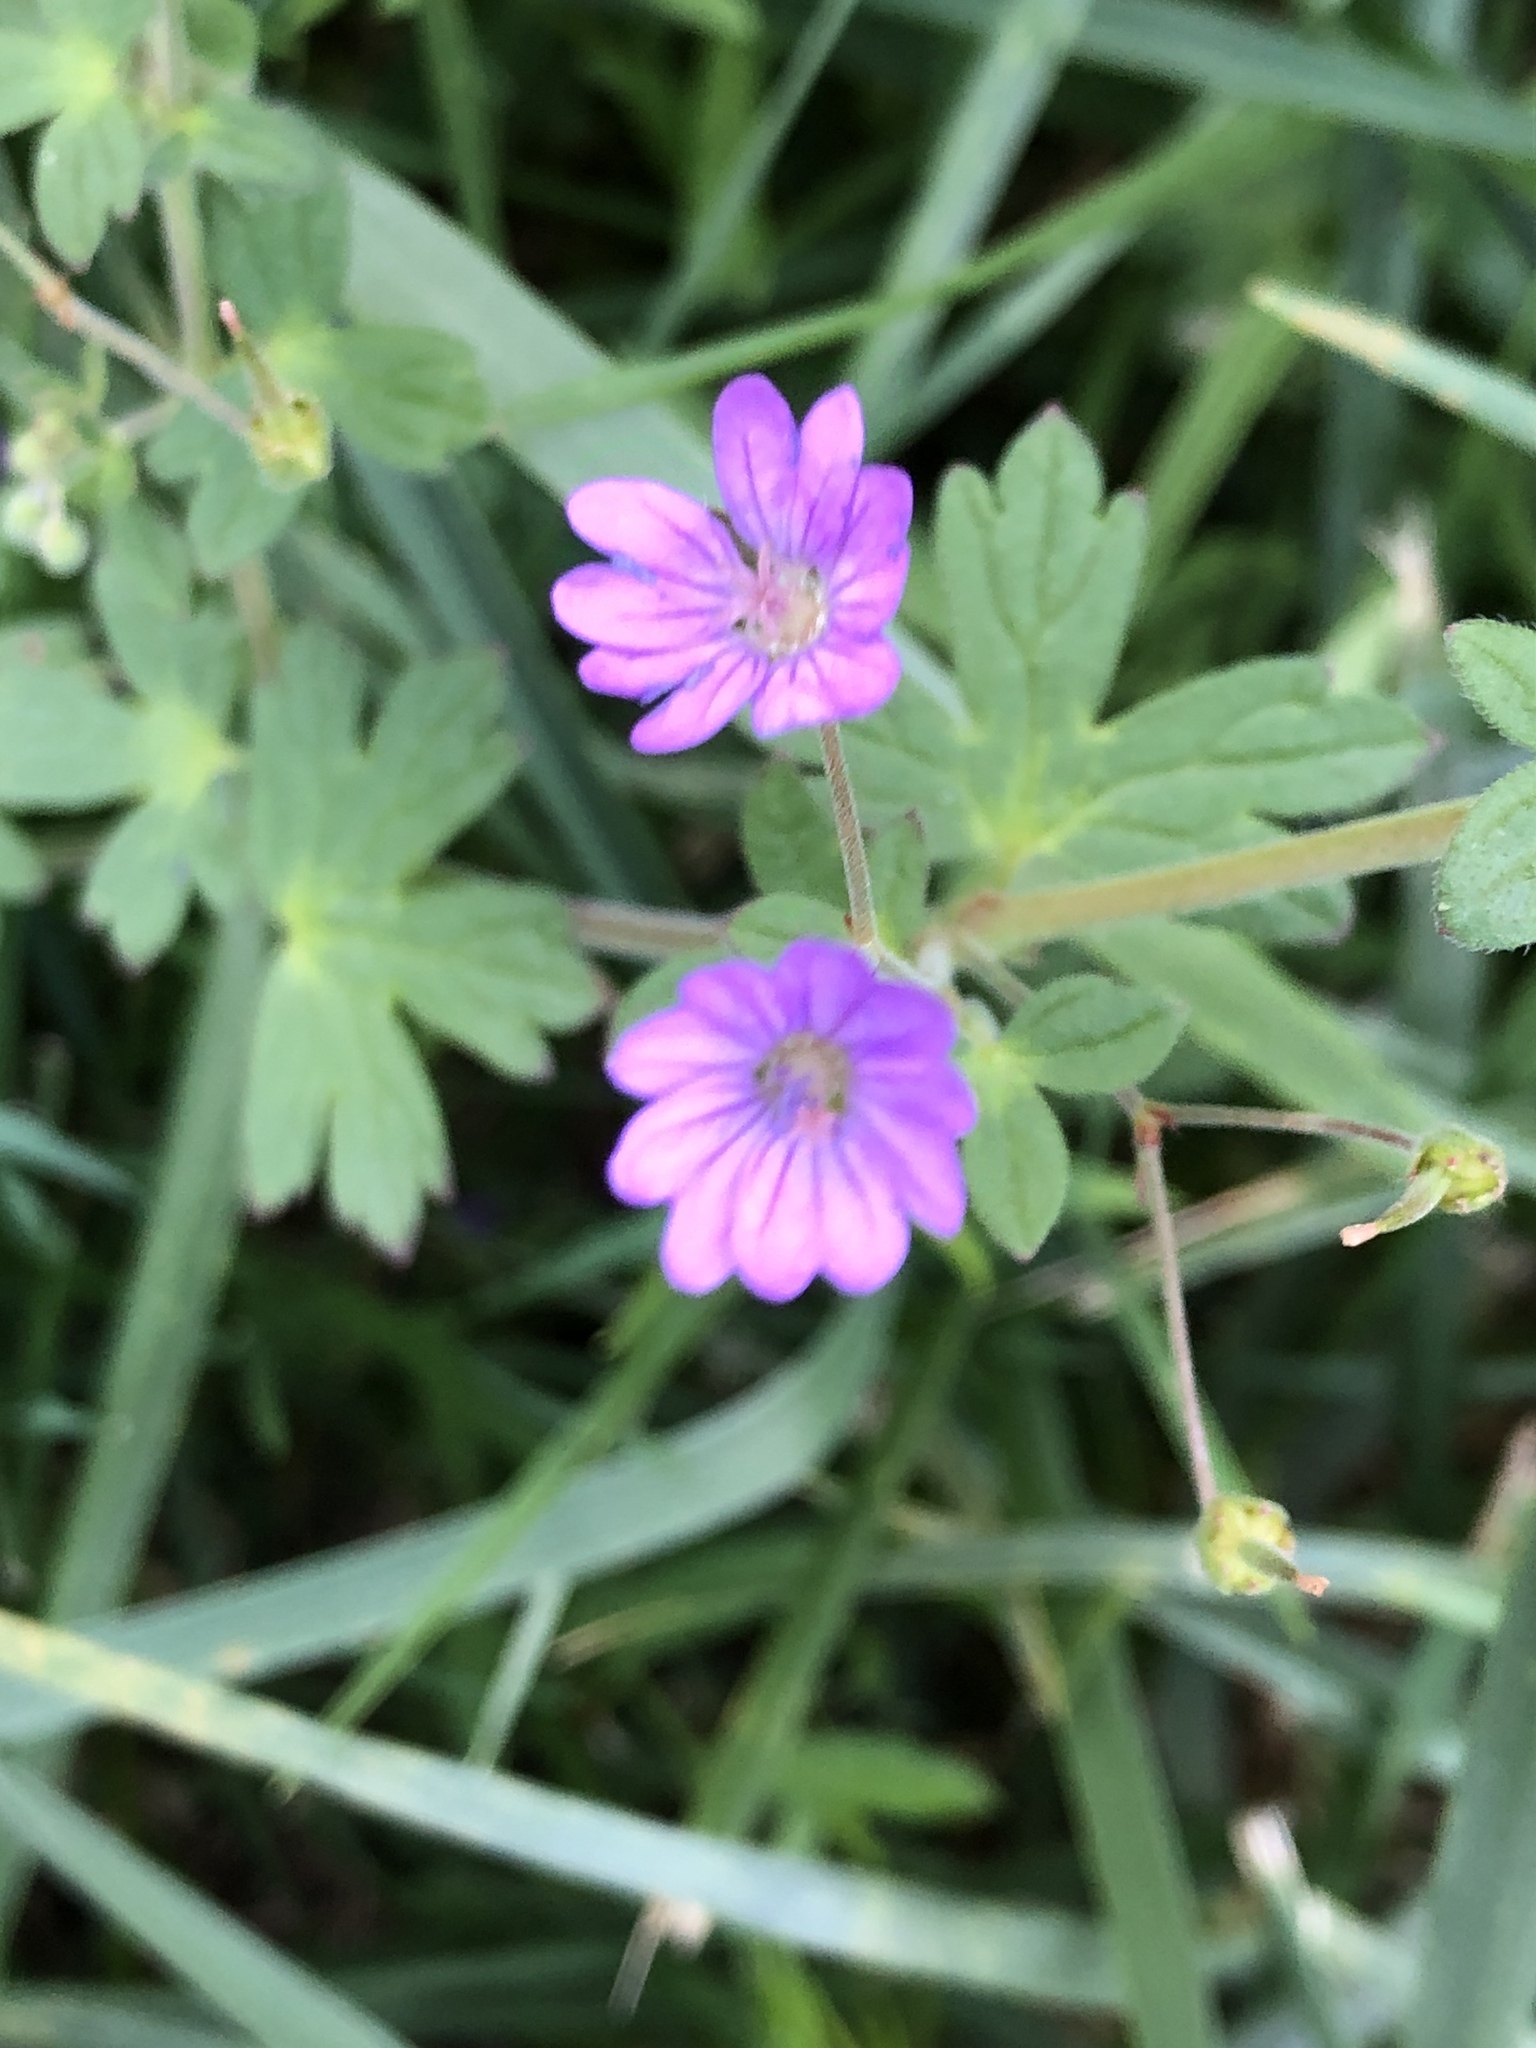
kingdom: Plantae
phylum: Tracheophyta
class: Magnoliopsida
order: Geraniales
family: Geraniaceae
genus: Geranium
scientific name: Geranium pyrenaicum
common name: Hedgerow crane's-bill
